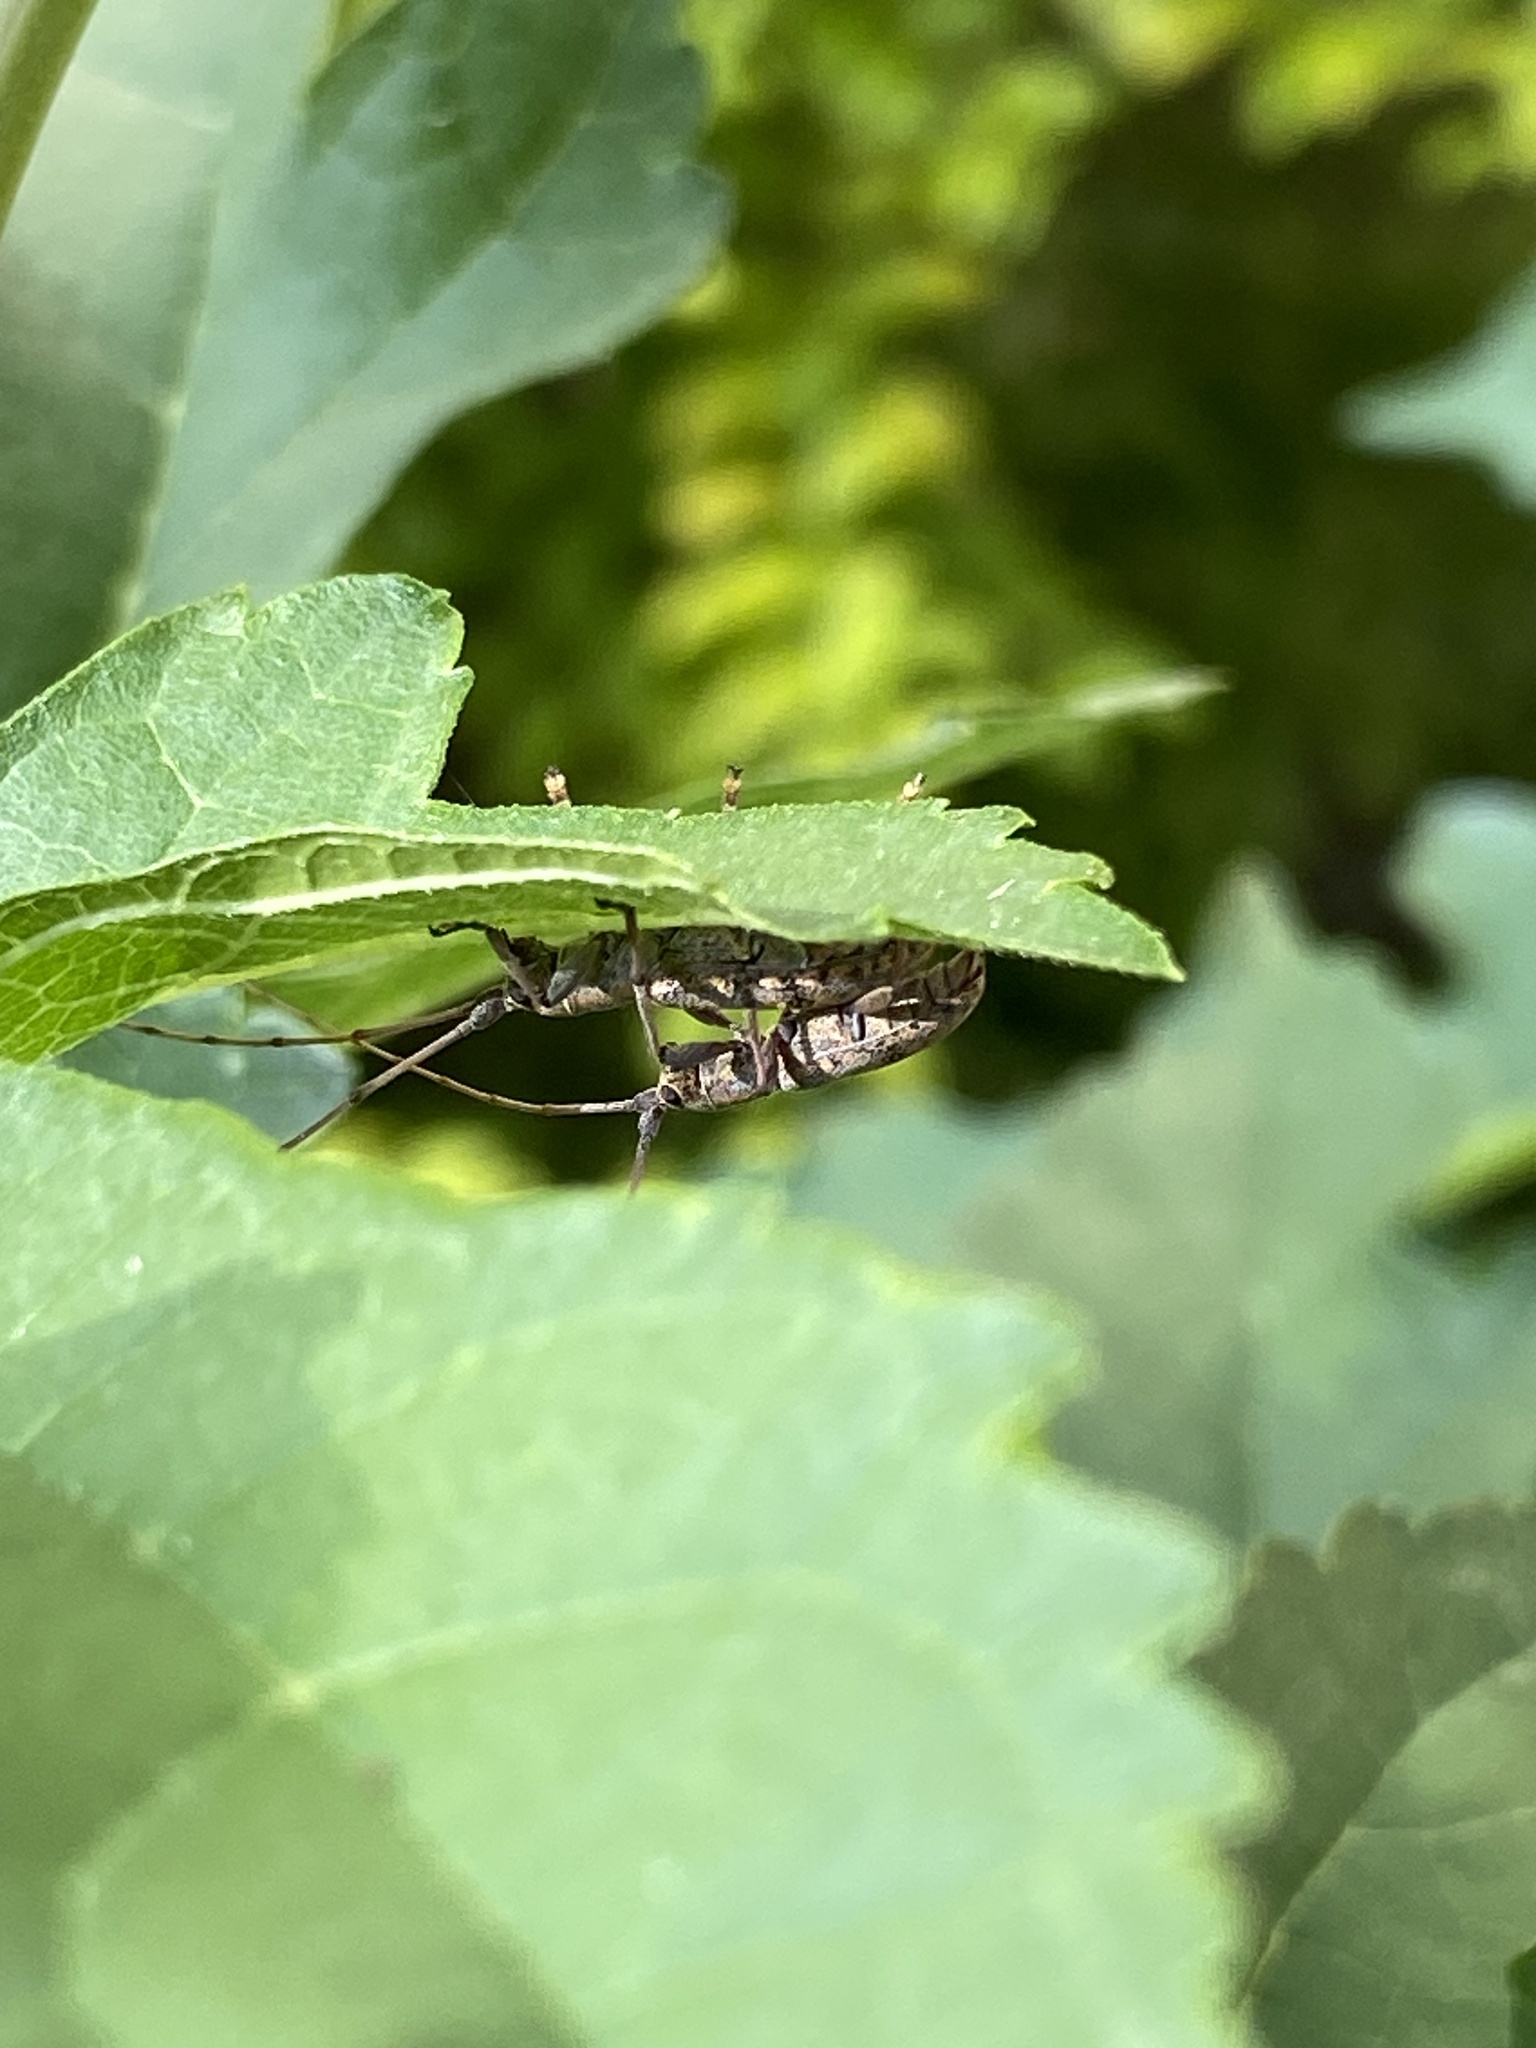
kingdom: Animalia
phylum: Arthropoda
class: Insecta
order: Coleoptera
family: Cerambycidae
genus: Dorcaschema
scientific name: Dorcaschema alternatum
